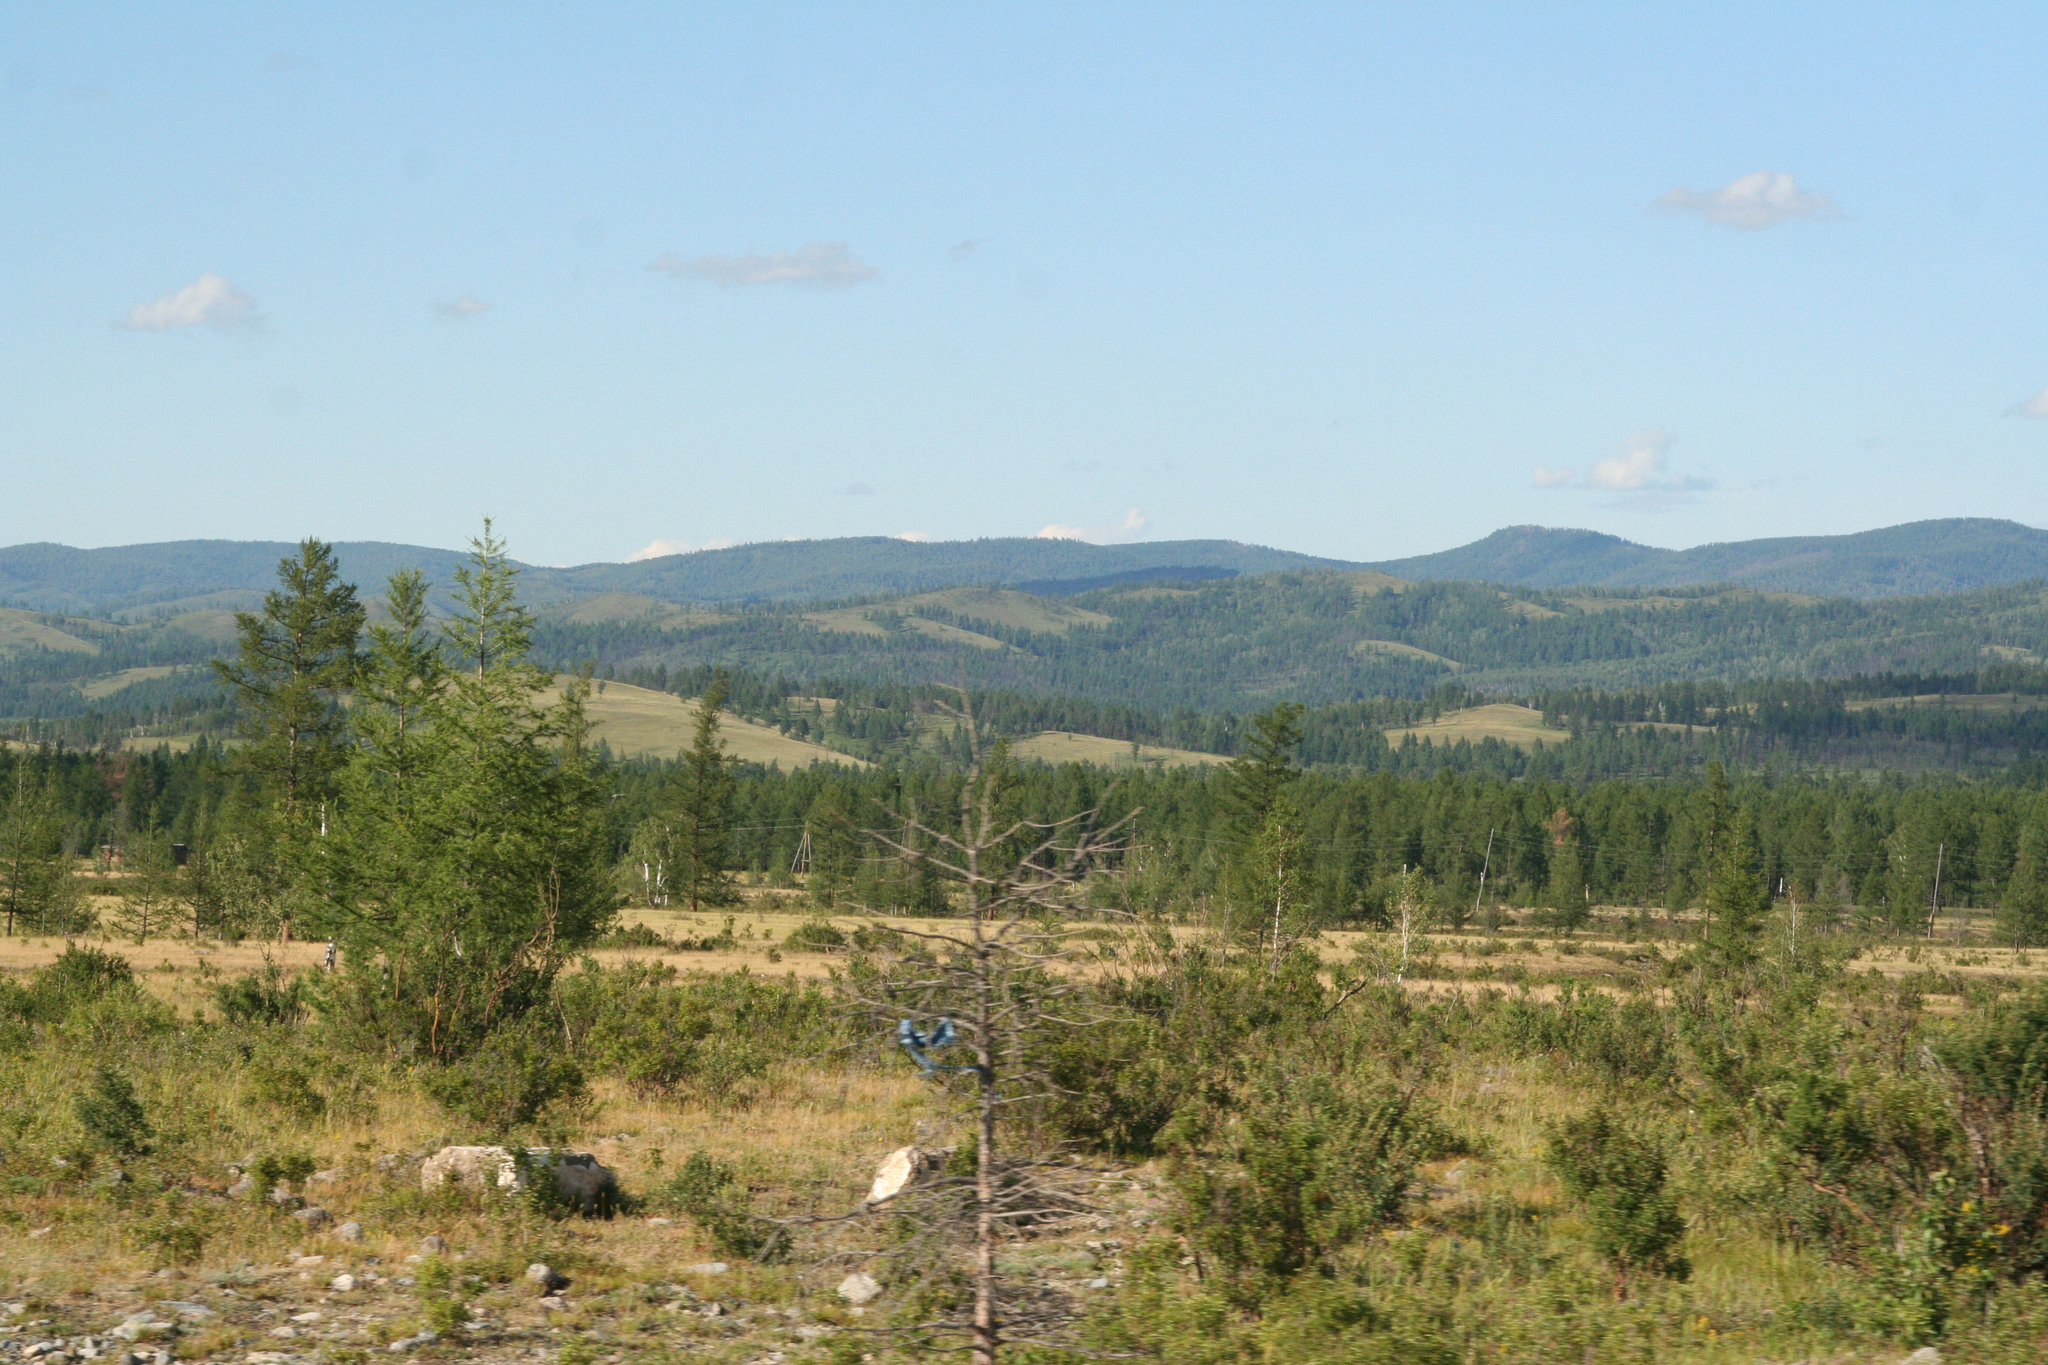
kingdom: Plantae
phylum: Tracheophyta
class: Magnoliopsida
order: Fagales
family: Betulaceae
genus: Betula
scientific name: Betula pendula
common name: Silver birch
